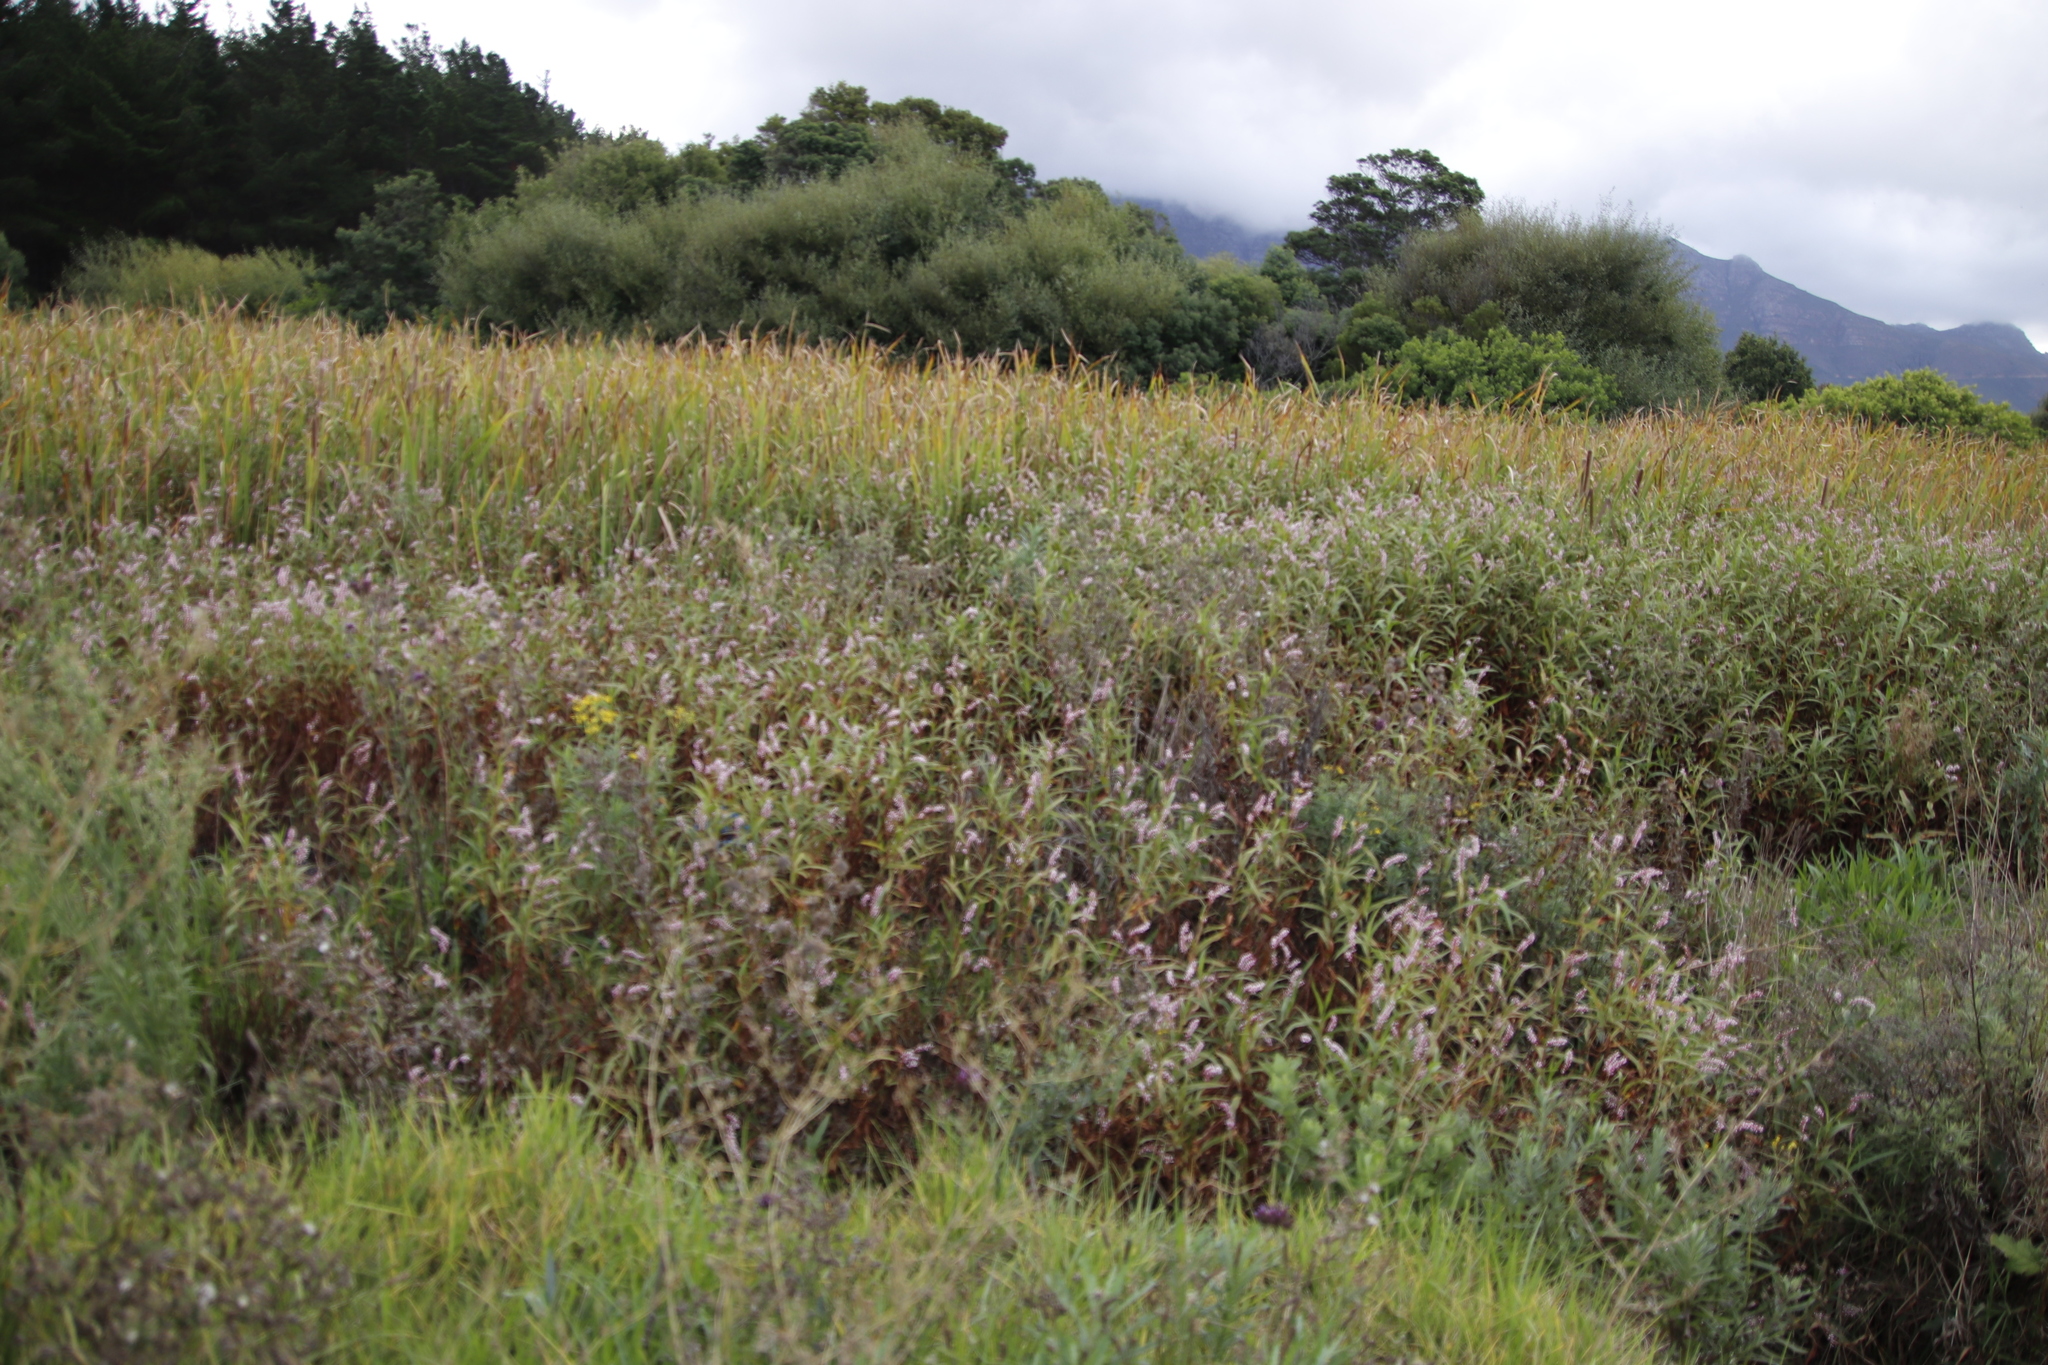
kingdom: Plantae
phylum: Tracheophyta
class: Magnoliopsida
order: Caryophyllales
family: Polygonaceae
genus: Persicaria
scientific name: Persicaria madagascariensis
